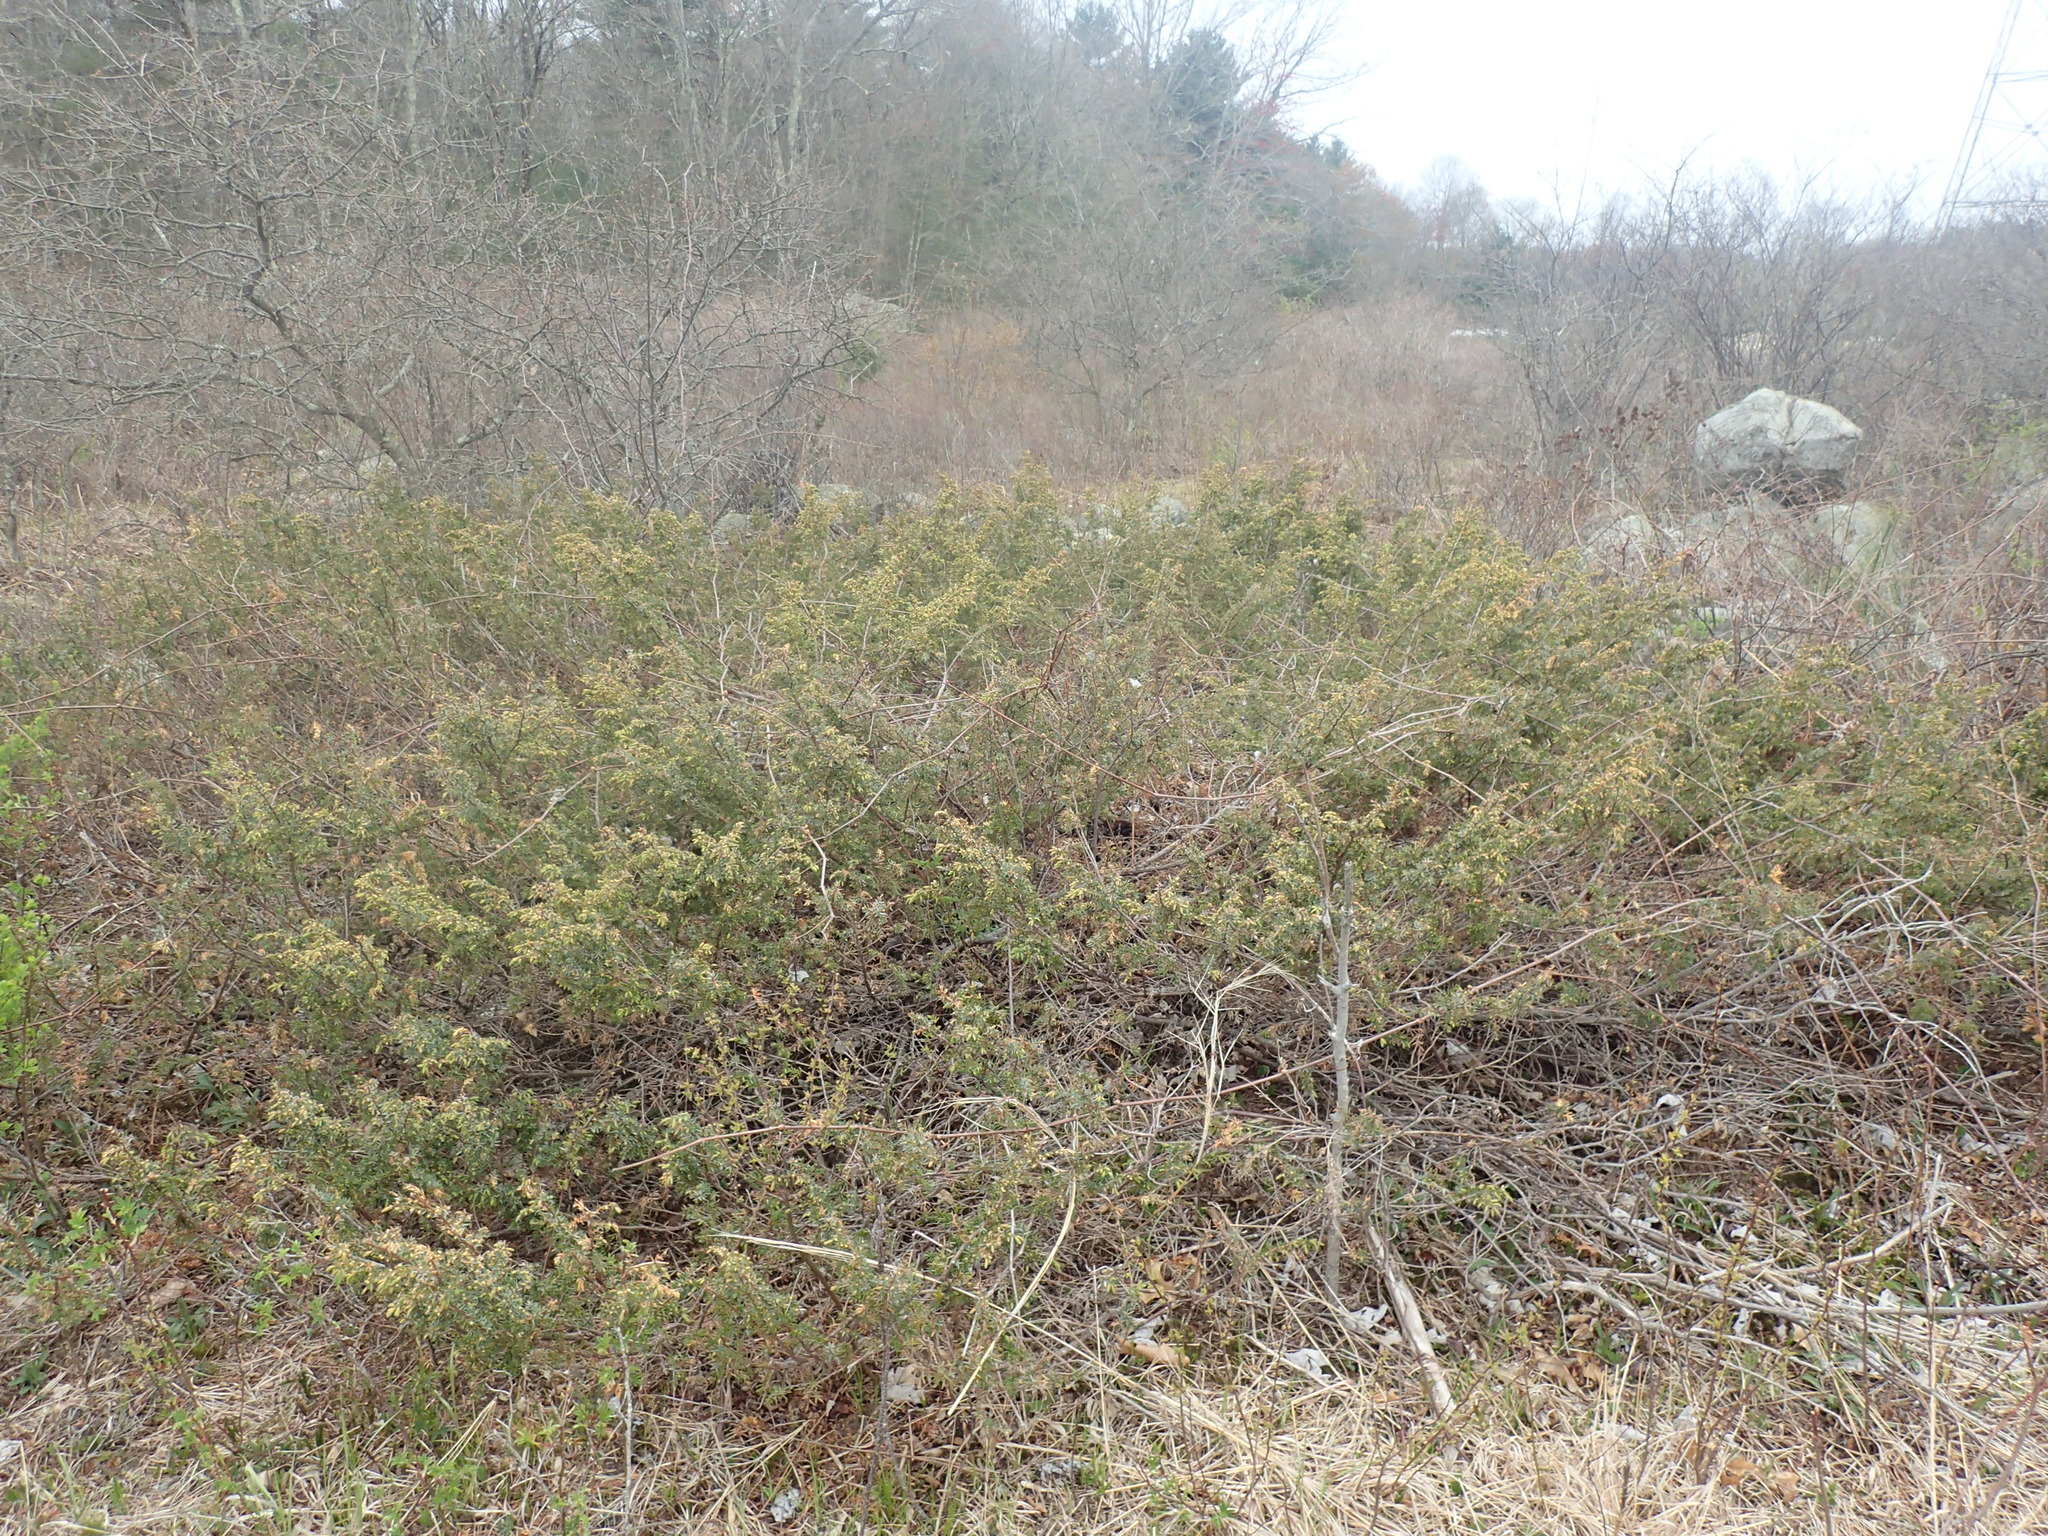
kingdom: Plantae
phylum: Tracheophyta
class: Pinopsida
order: Pinales
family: Cupressaceae
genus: Juniperus
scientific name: Juniperus communis
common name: Common juniper
